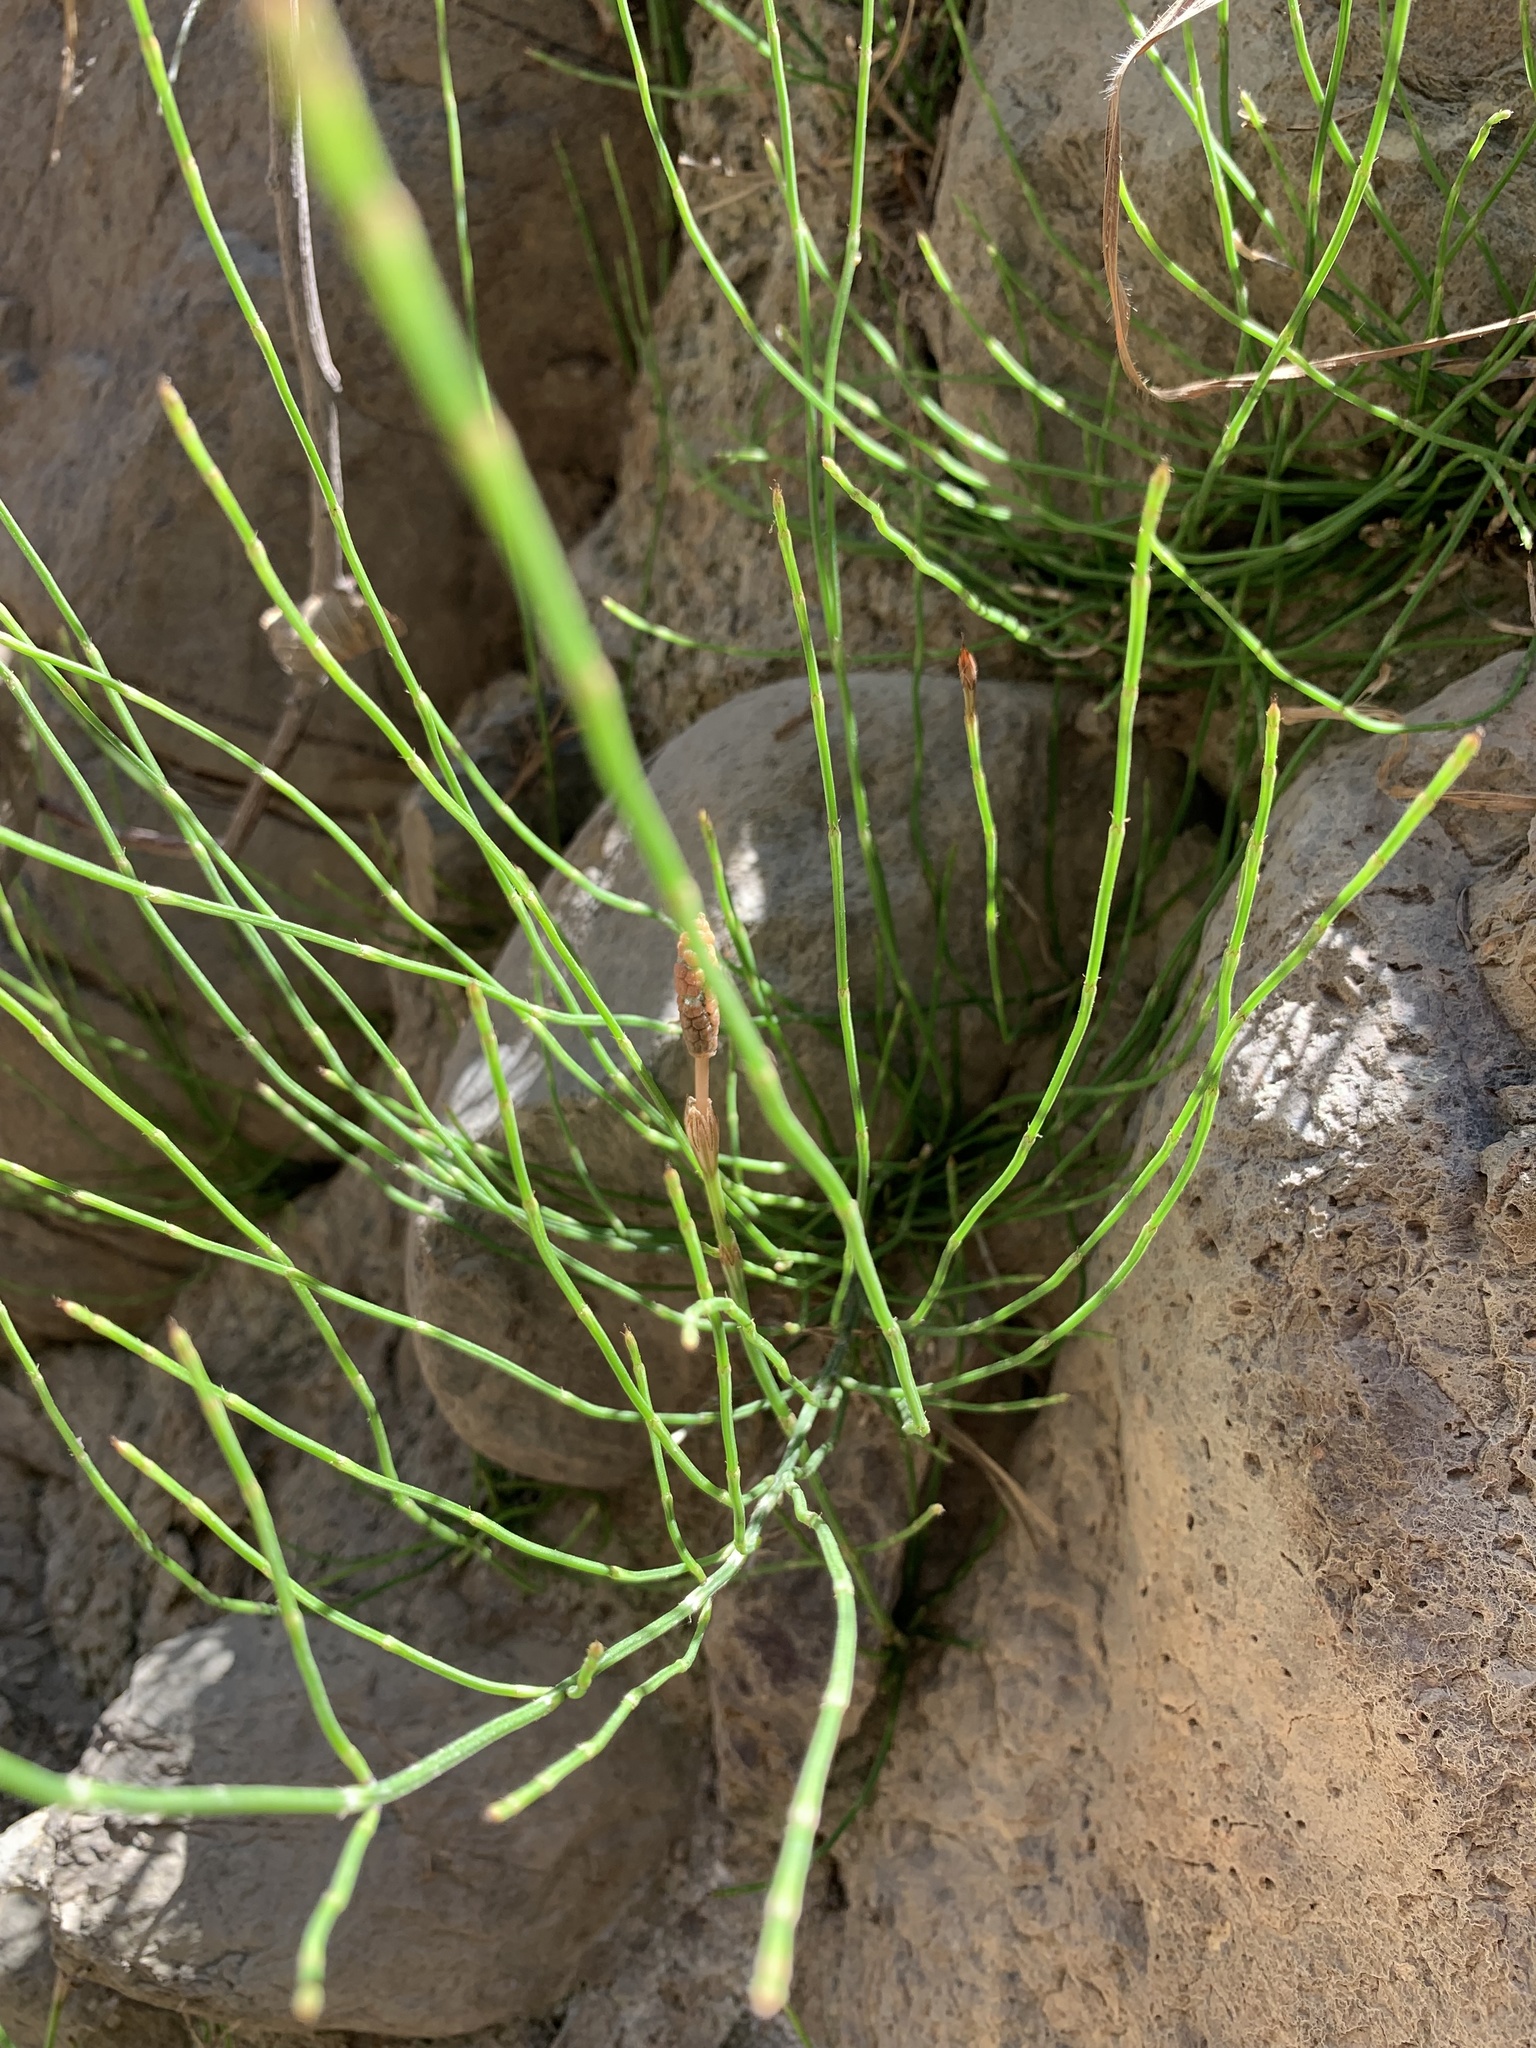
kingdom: Plantae
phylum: Tracheophyta
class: Polypodiopsida
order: Equisetales
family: Equisetaceae
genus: Equisetum
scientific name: Equisetum bogotense
